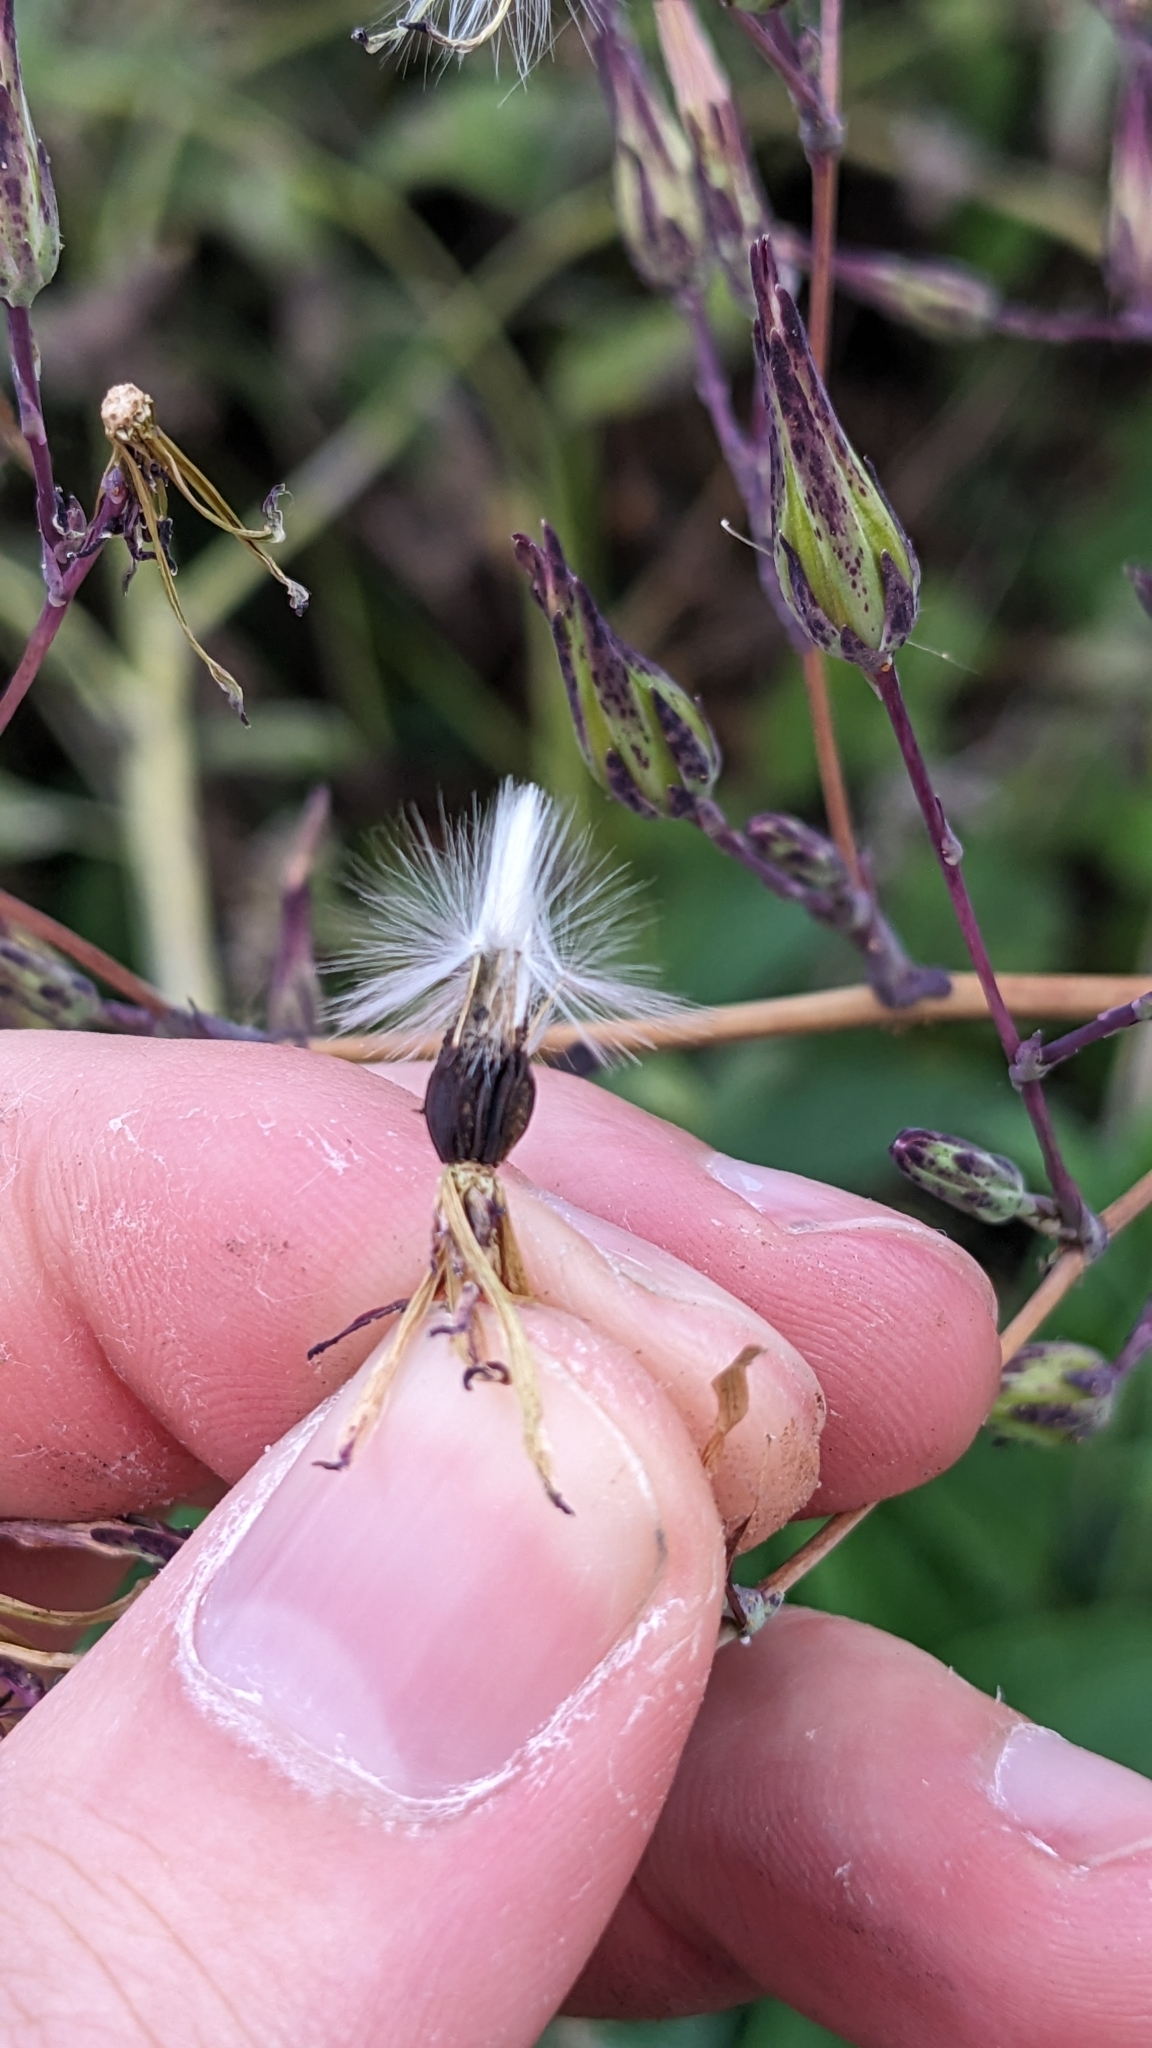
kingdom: Plantae
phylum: Tracheophyta
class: Magnoliopsida
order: Asterales
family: Asteraceae
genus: Lactuca
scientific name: Lactuca virosa
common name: Great lettuce
